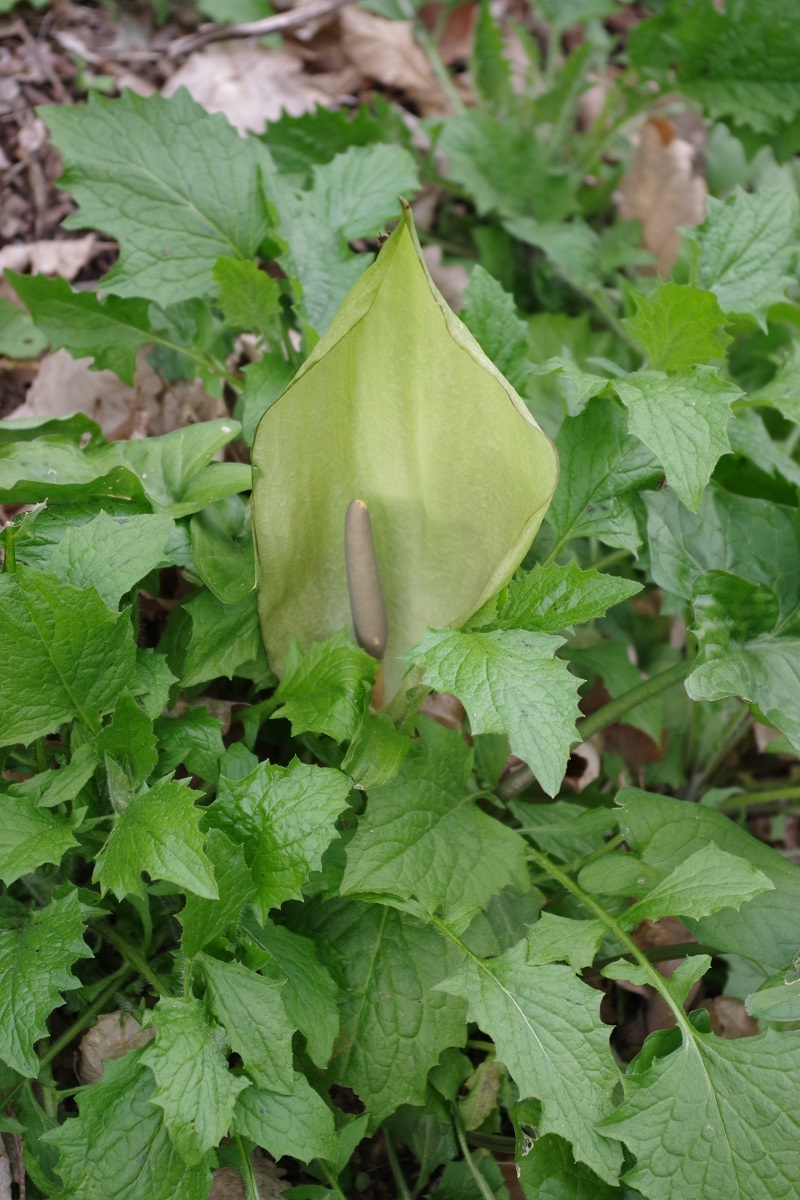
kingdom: Plantae
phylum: Tracheophyta
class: Liliopsida
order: Alismatales
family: Araceae
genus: Arum
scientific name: Arum maculatum
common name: Lords-and-ladies
